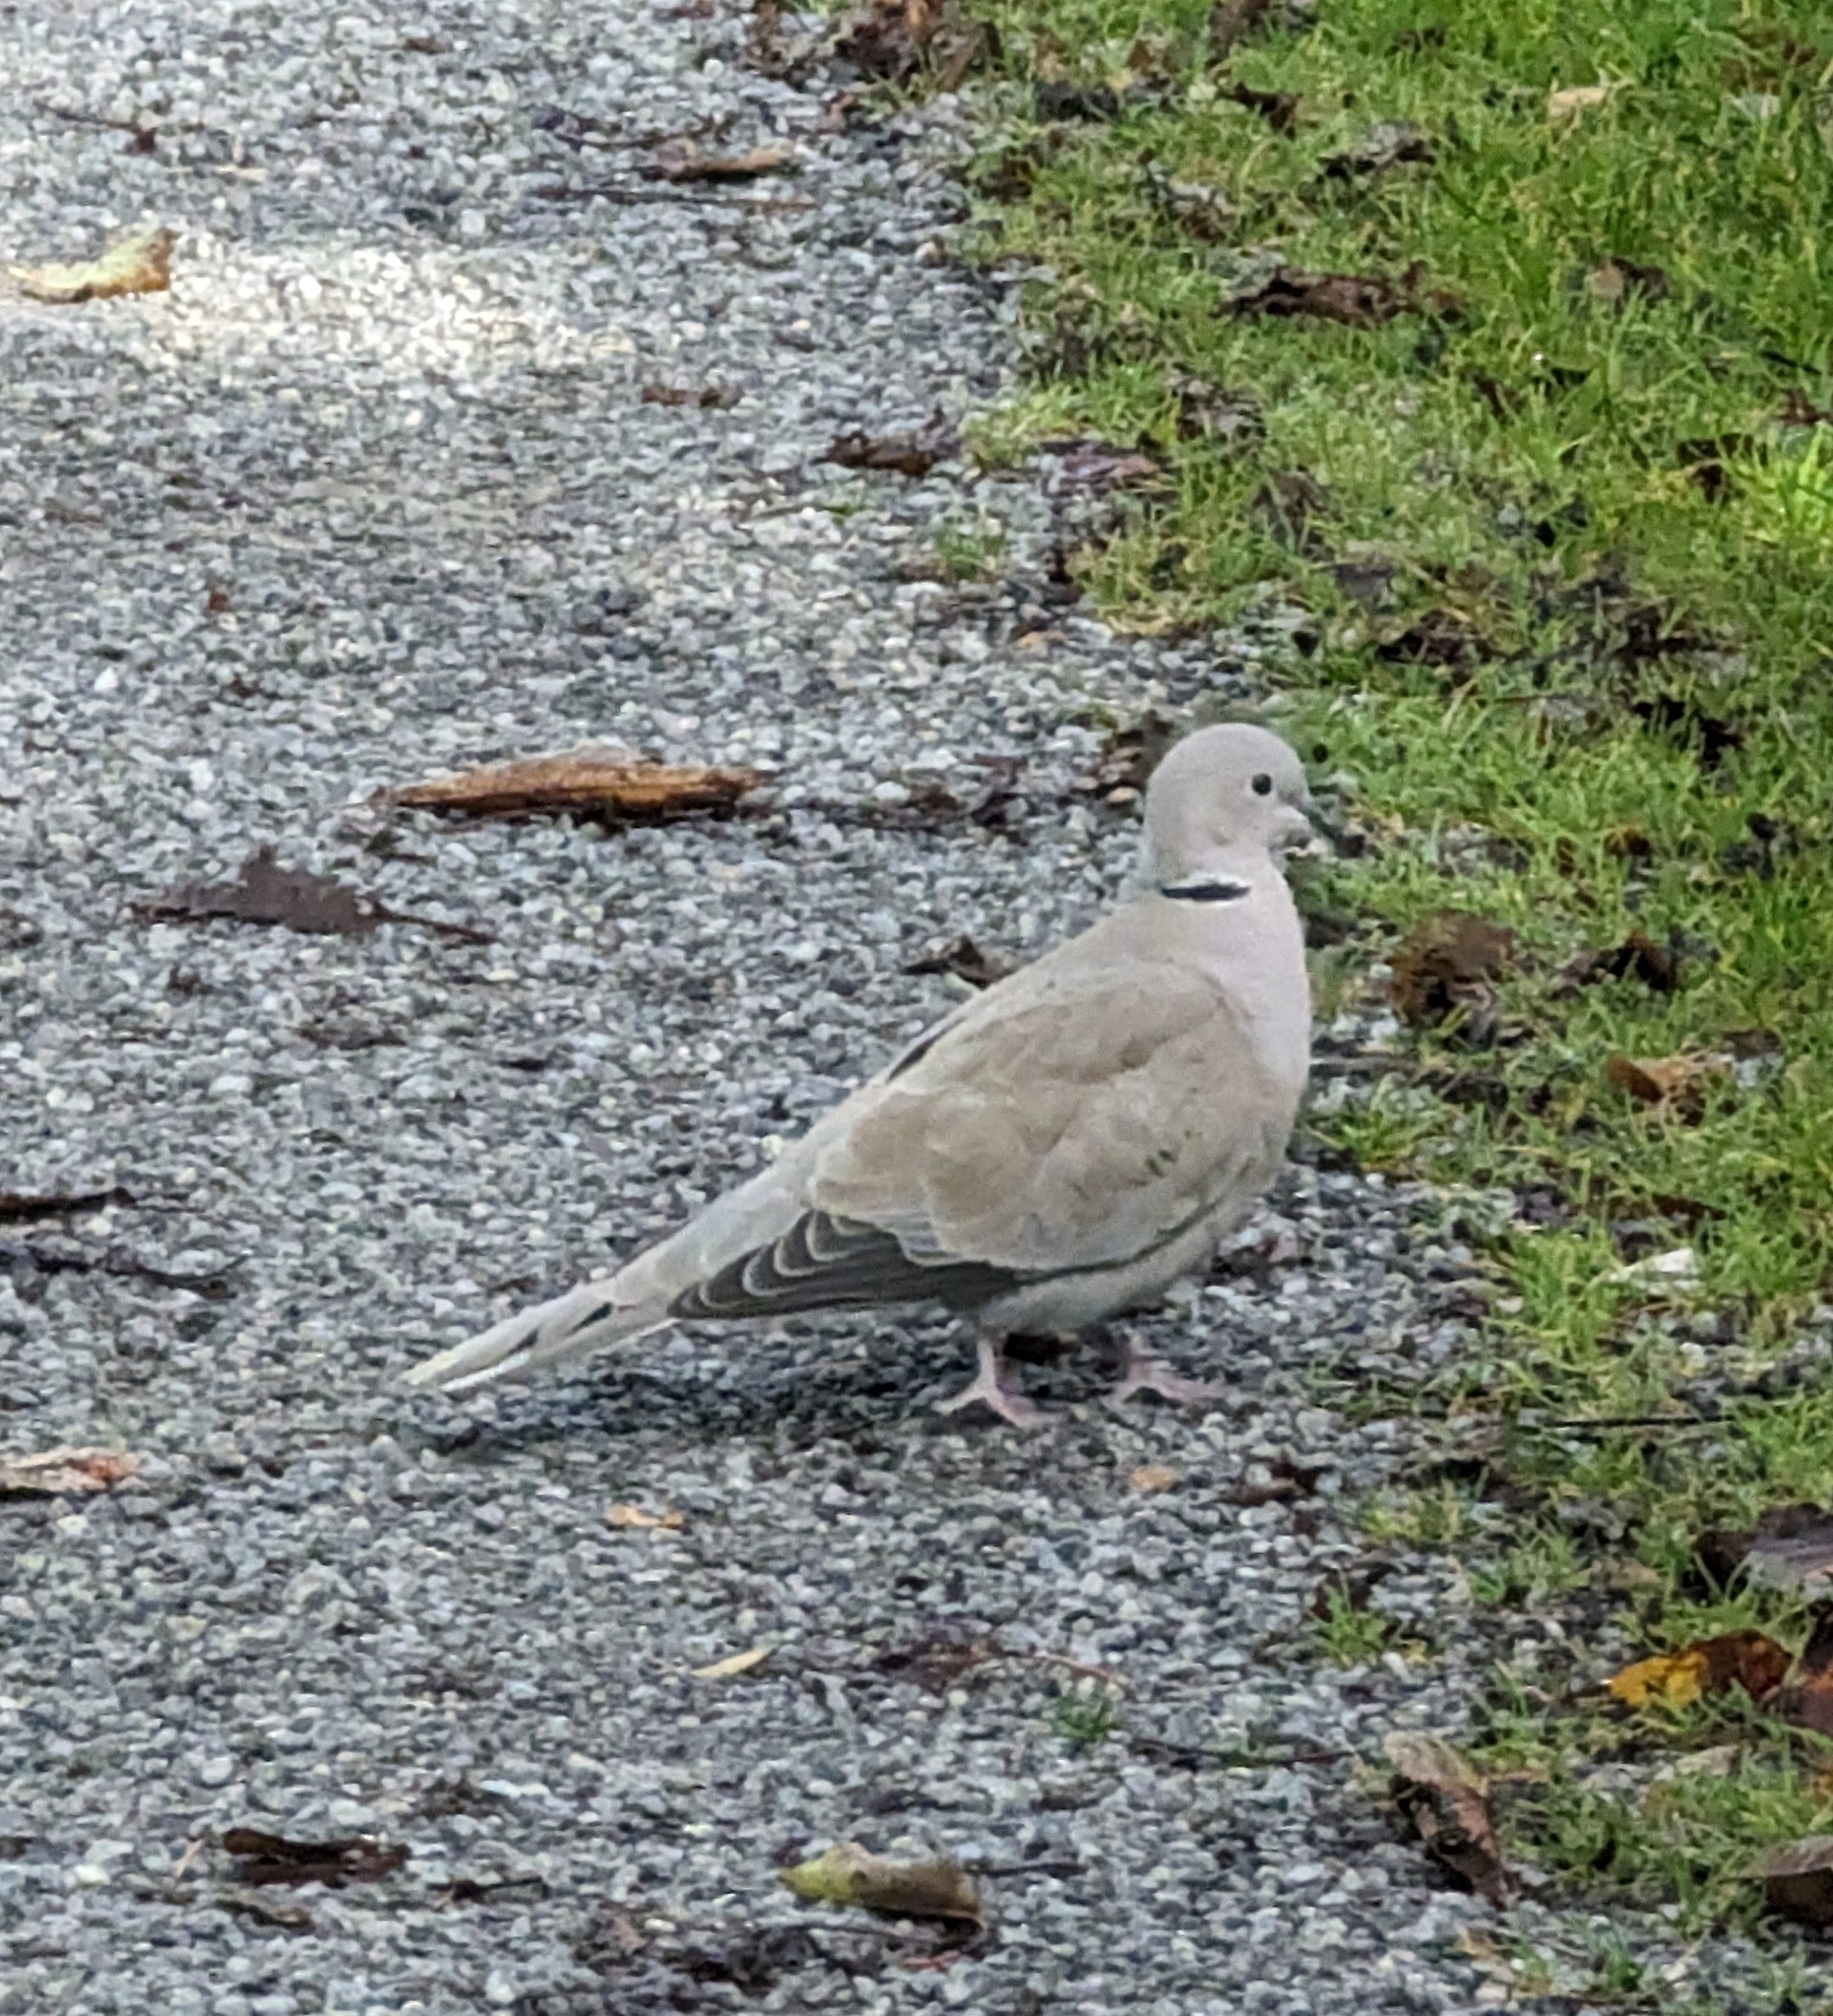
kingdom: Animalia
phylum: Chordata
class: Aves
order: Columbiformes
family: Columbidae
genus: Streptopelia
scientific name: Streptopelia decaocto
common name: Eurasian collared dove
